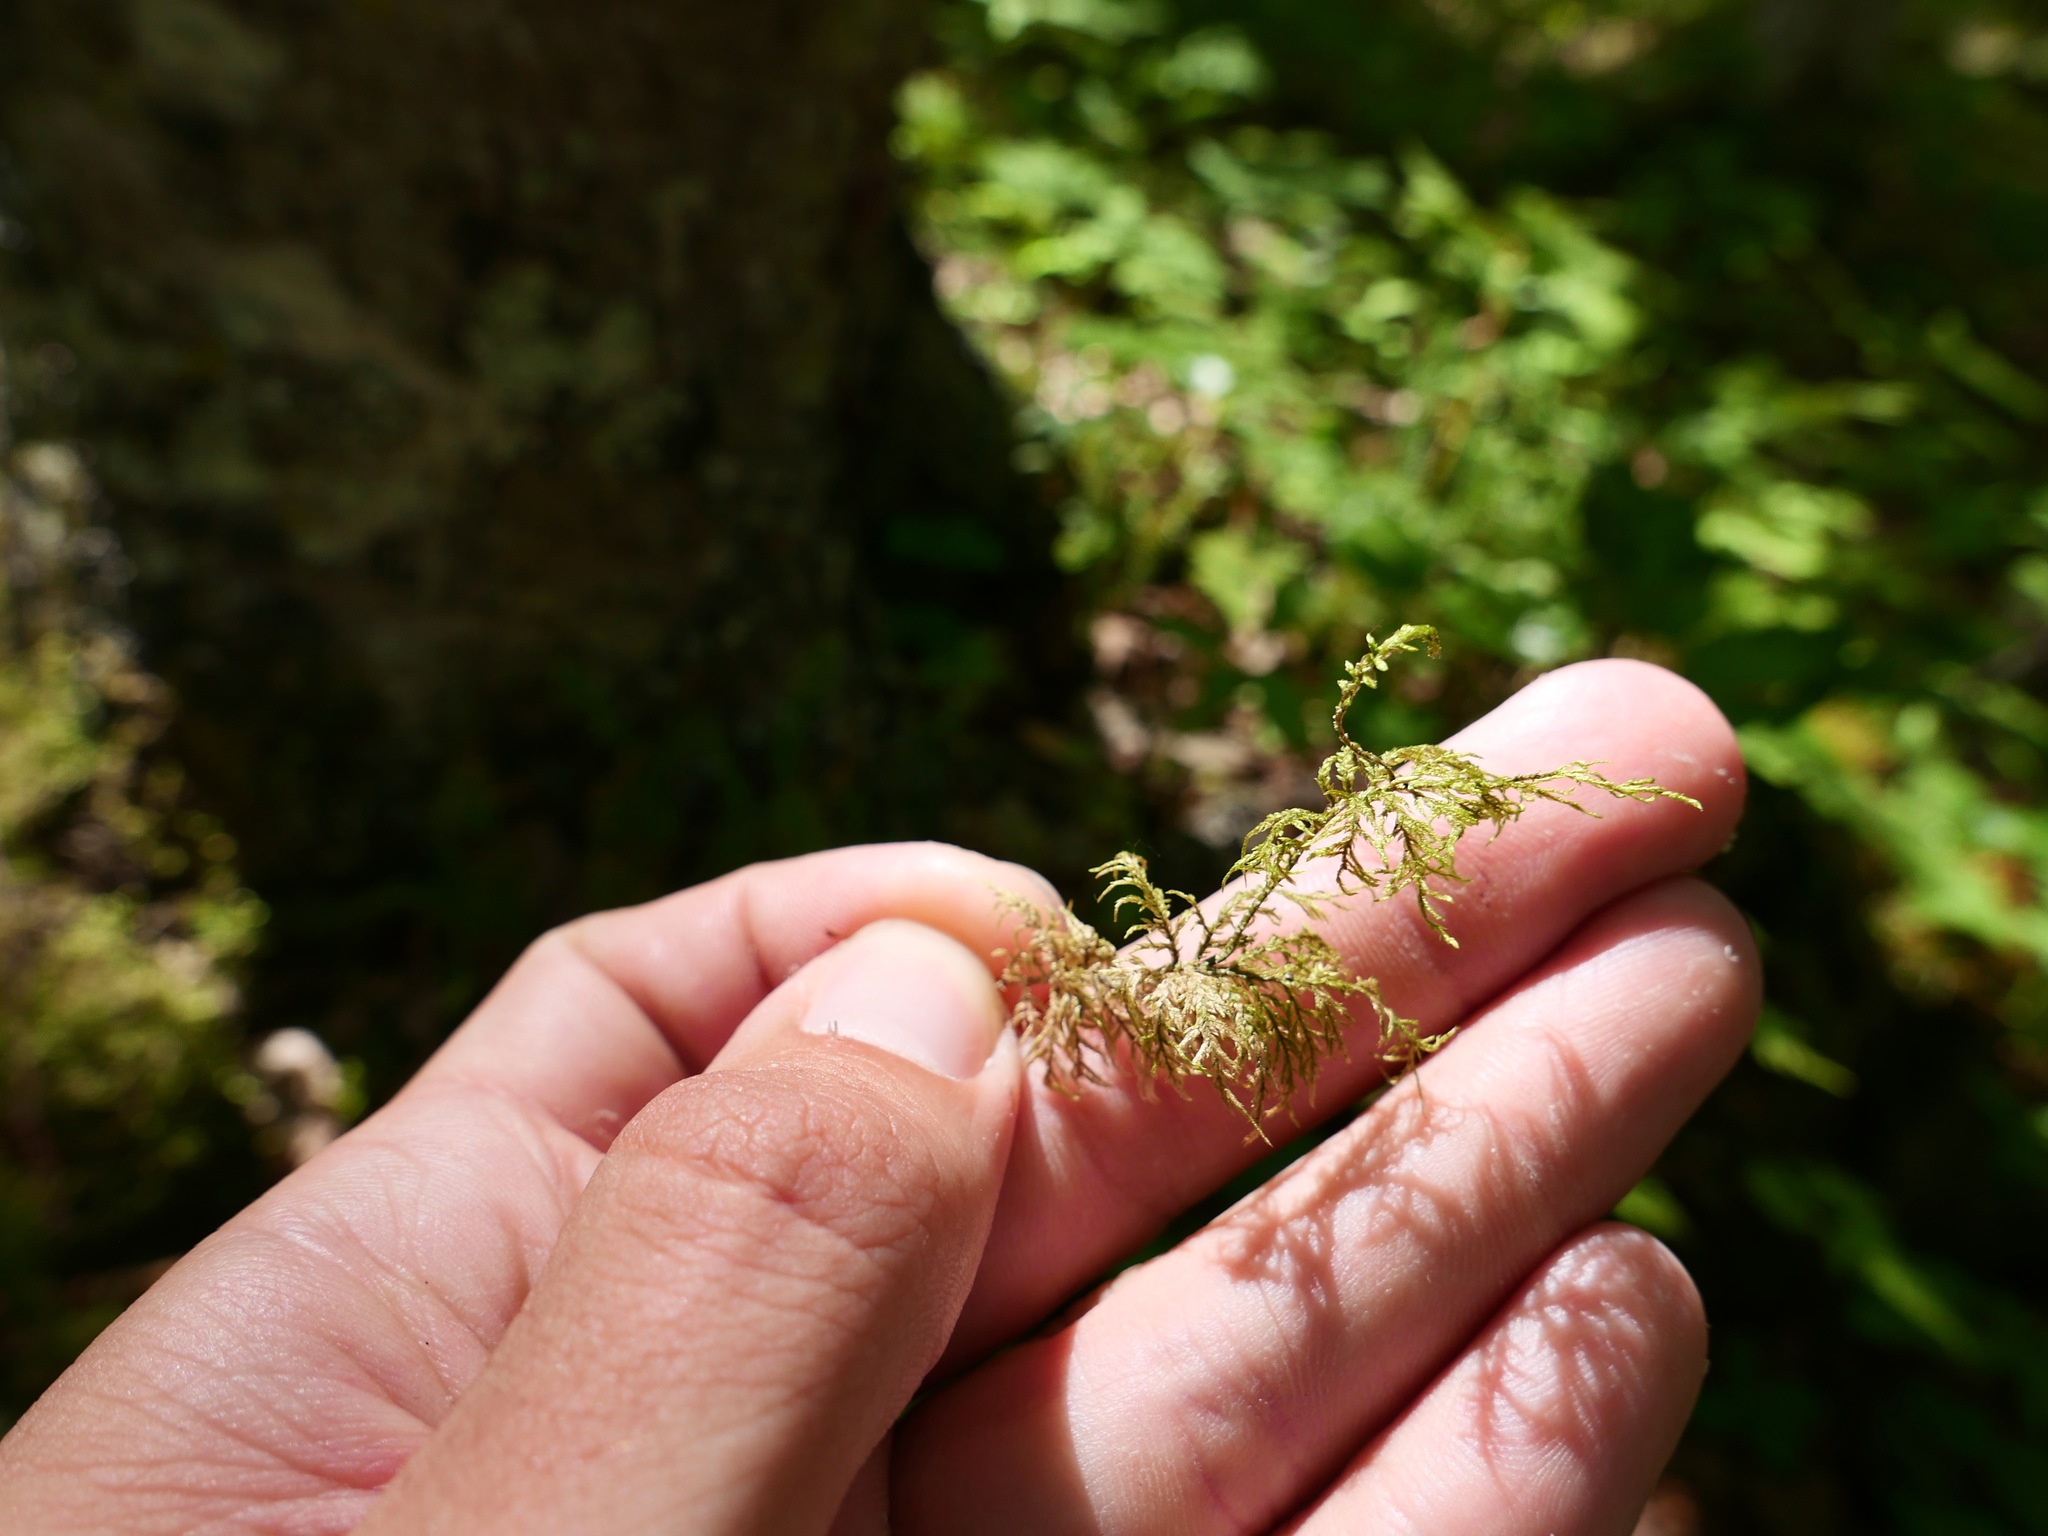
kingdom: Plantae
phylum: Bryophyta
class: Bryopsida
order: Hypnales
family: Hylocomiaceae
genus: Hylocomium
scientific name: Hylocomium splendens
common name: Stairstep moss
